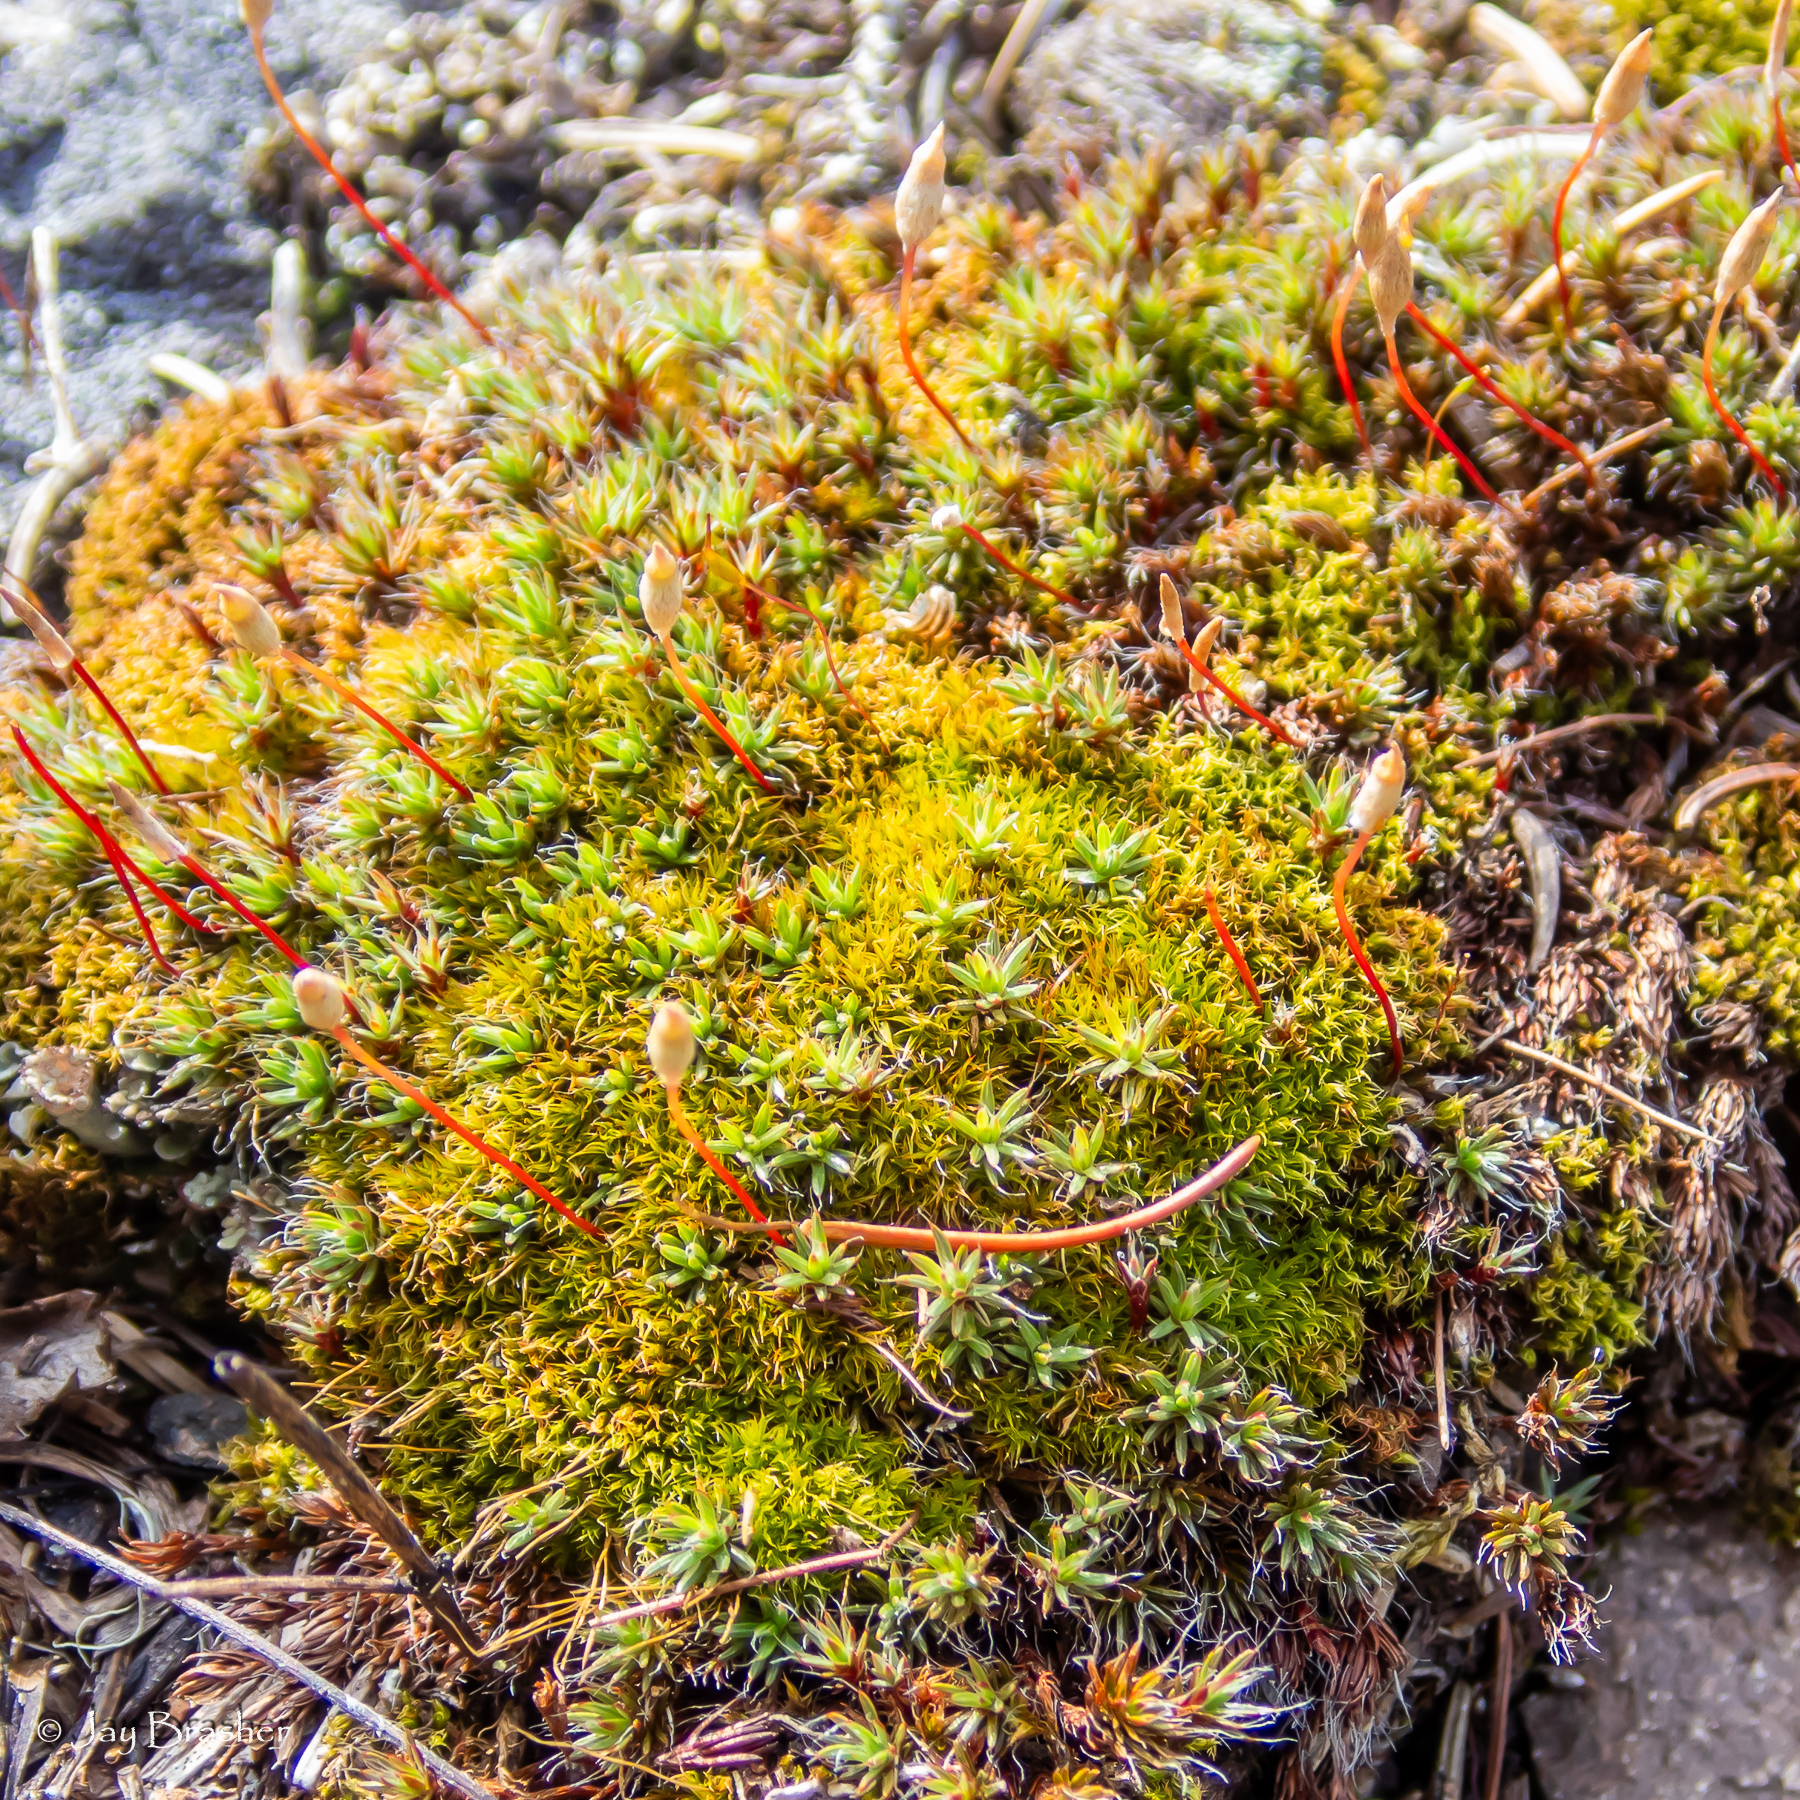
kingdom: Plantae
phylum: Bryophyta
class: Polytrichopsida
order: Polytrichales
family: Polytrichaceae
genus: Polytrichum
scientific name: Polytrichum piliferum
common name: Bristly haircap
